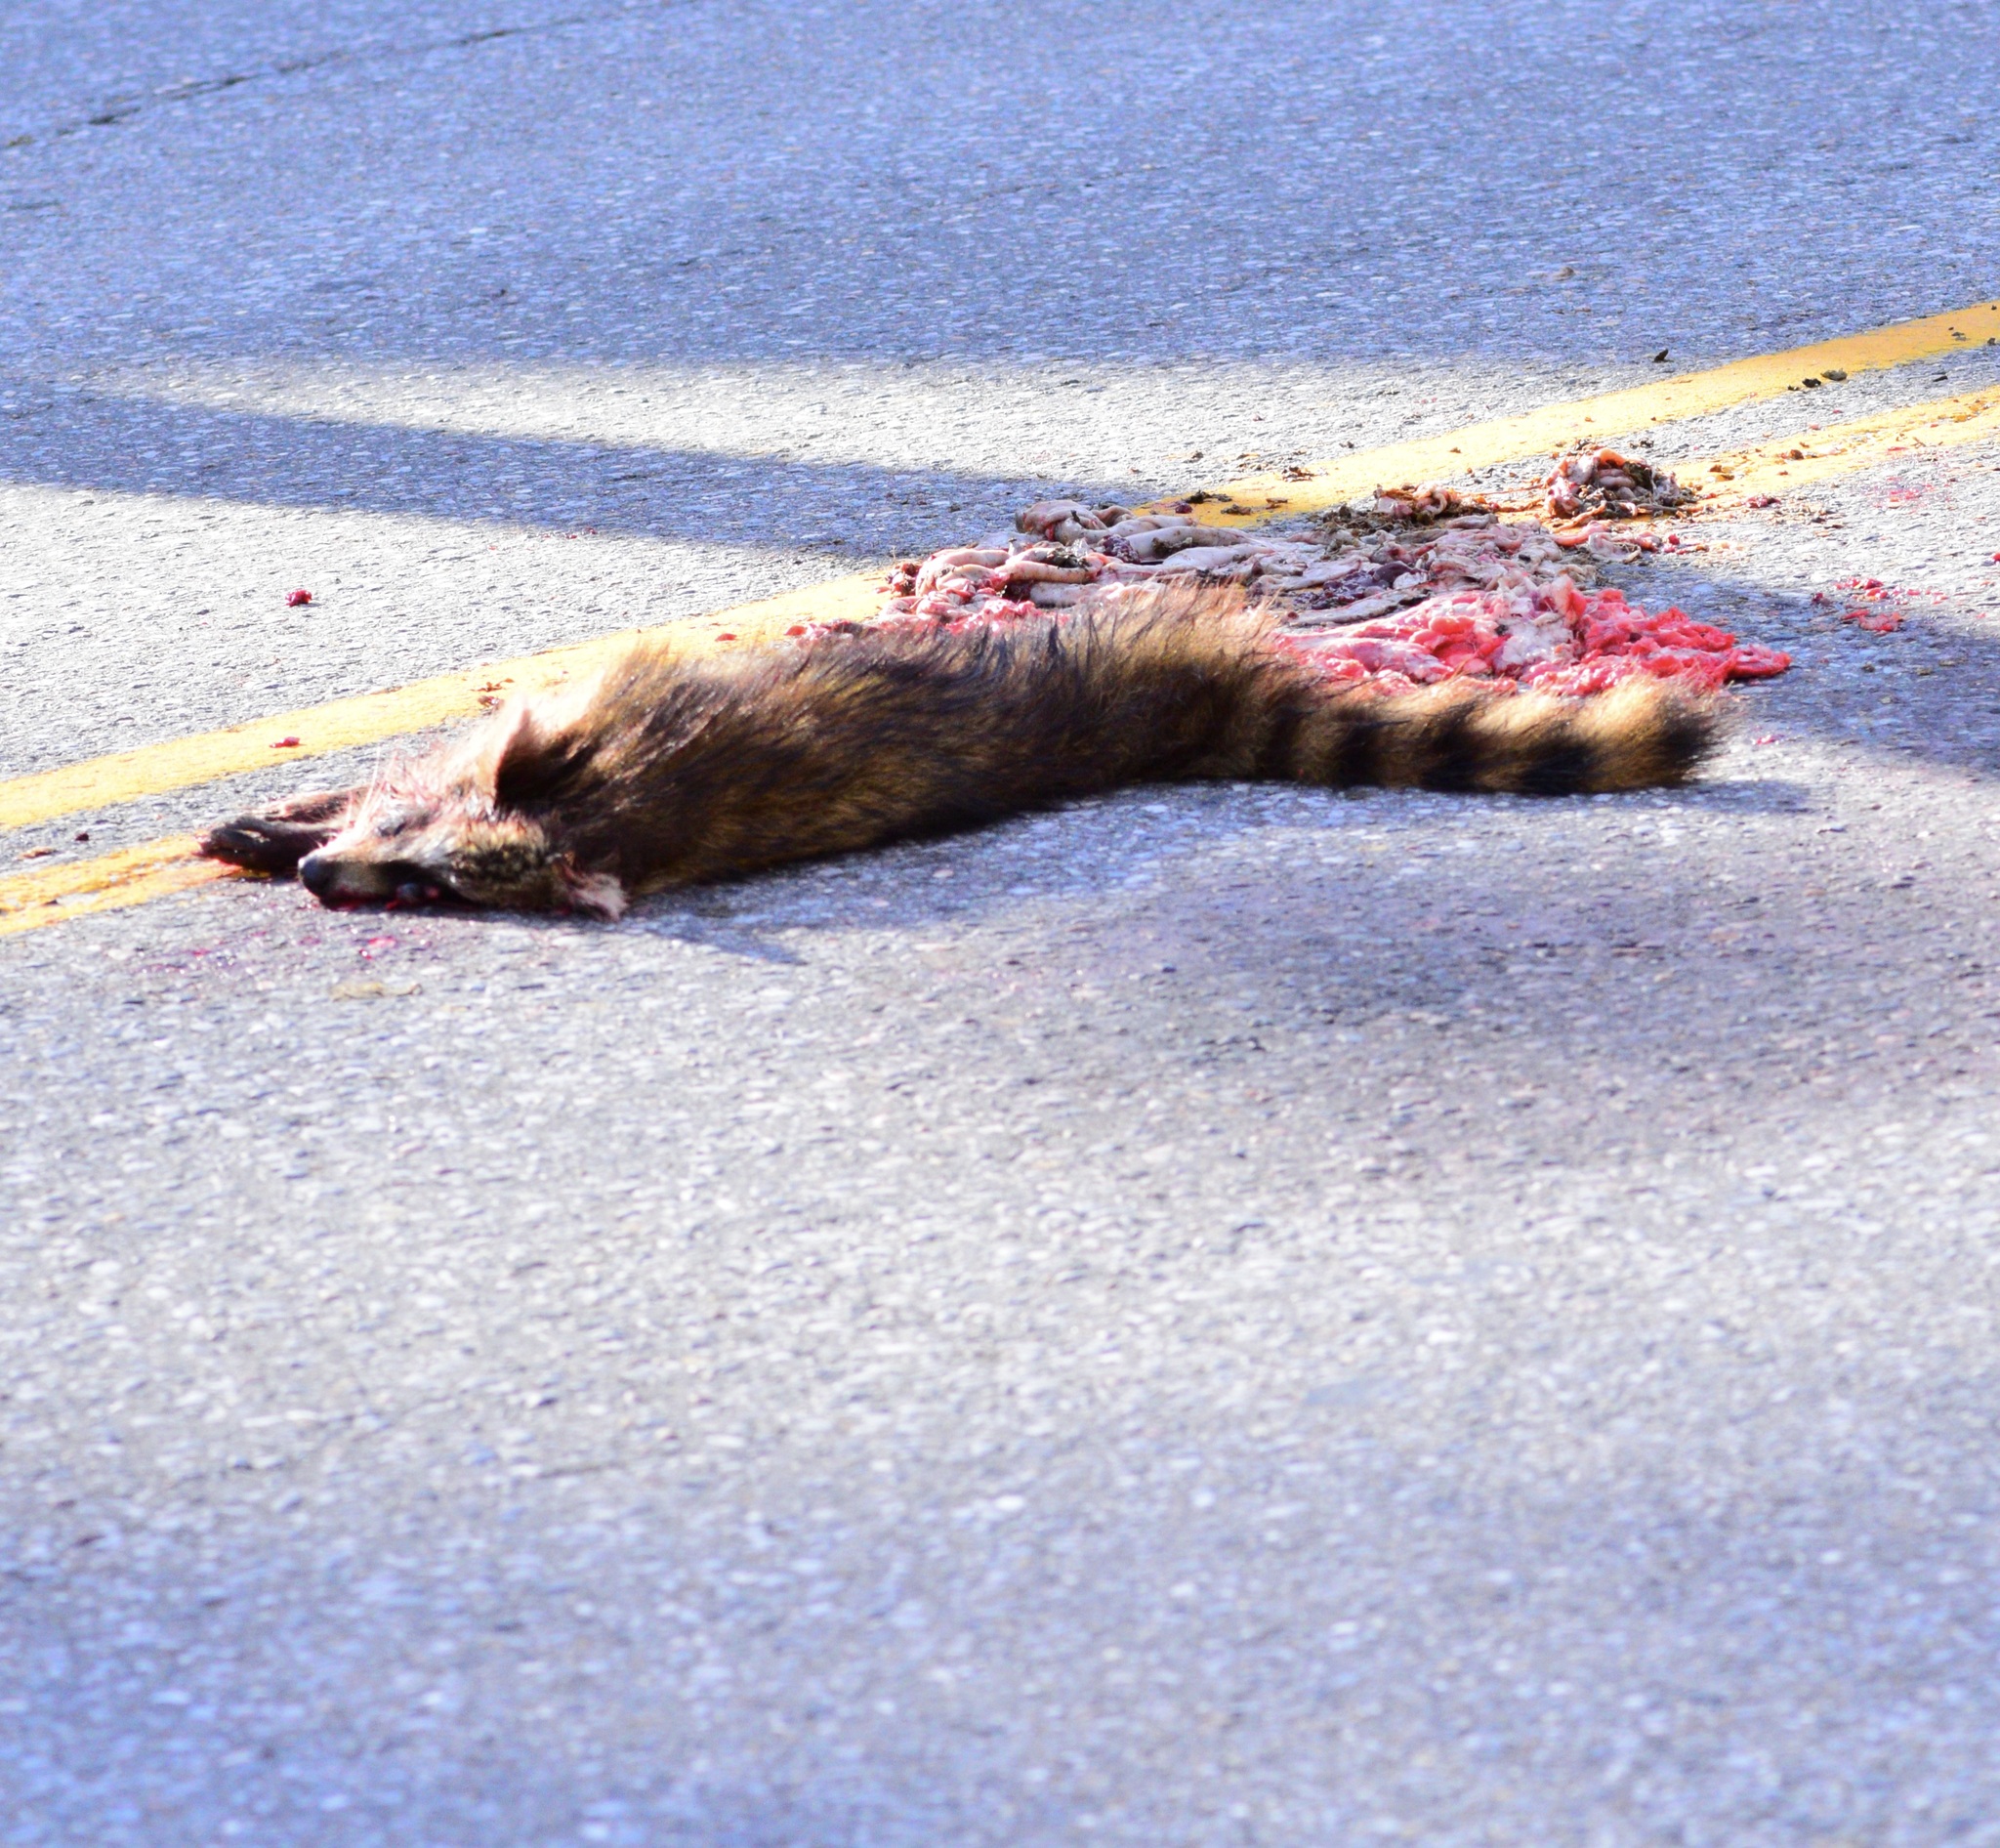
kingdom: Animalia
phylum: Chordata
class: Mammalia
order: Carnivora
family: Procyonidae
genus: Procyon
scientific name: Procyon lotor
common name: Raccoon
